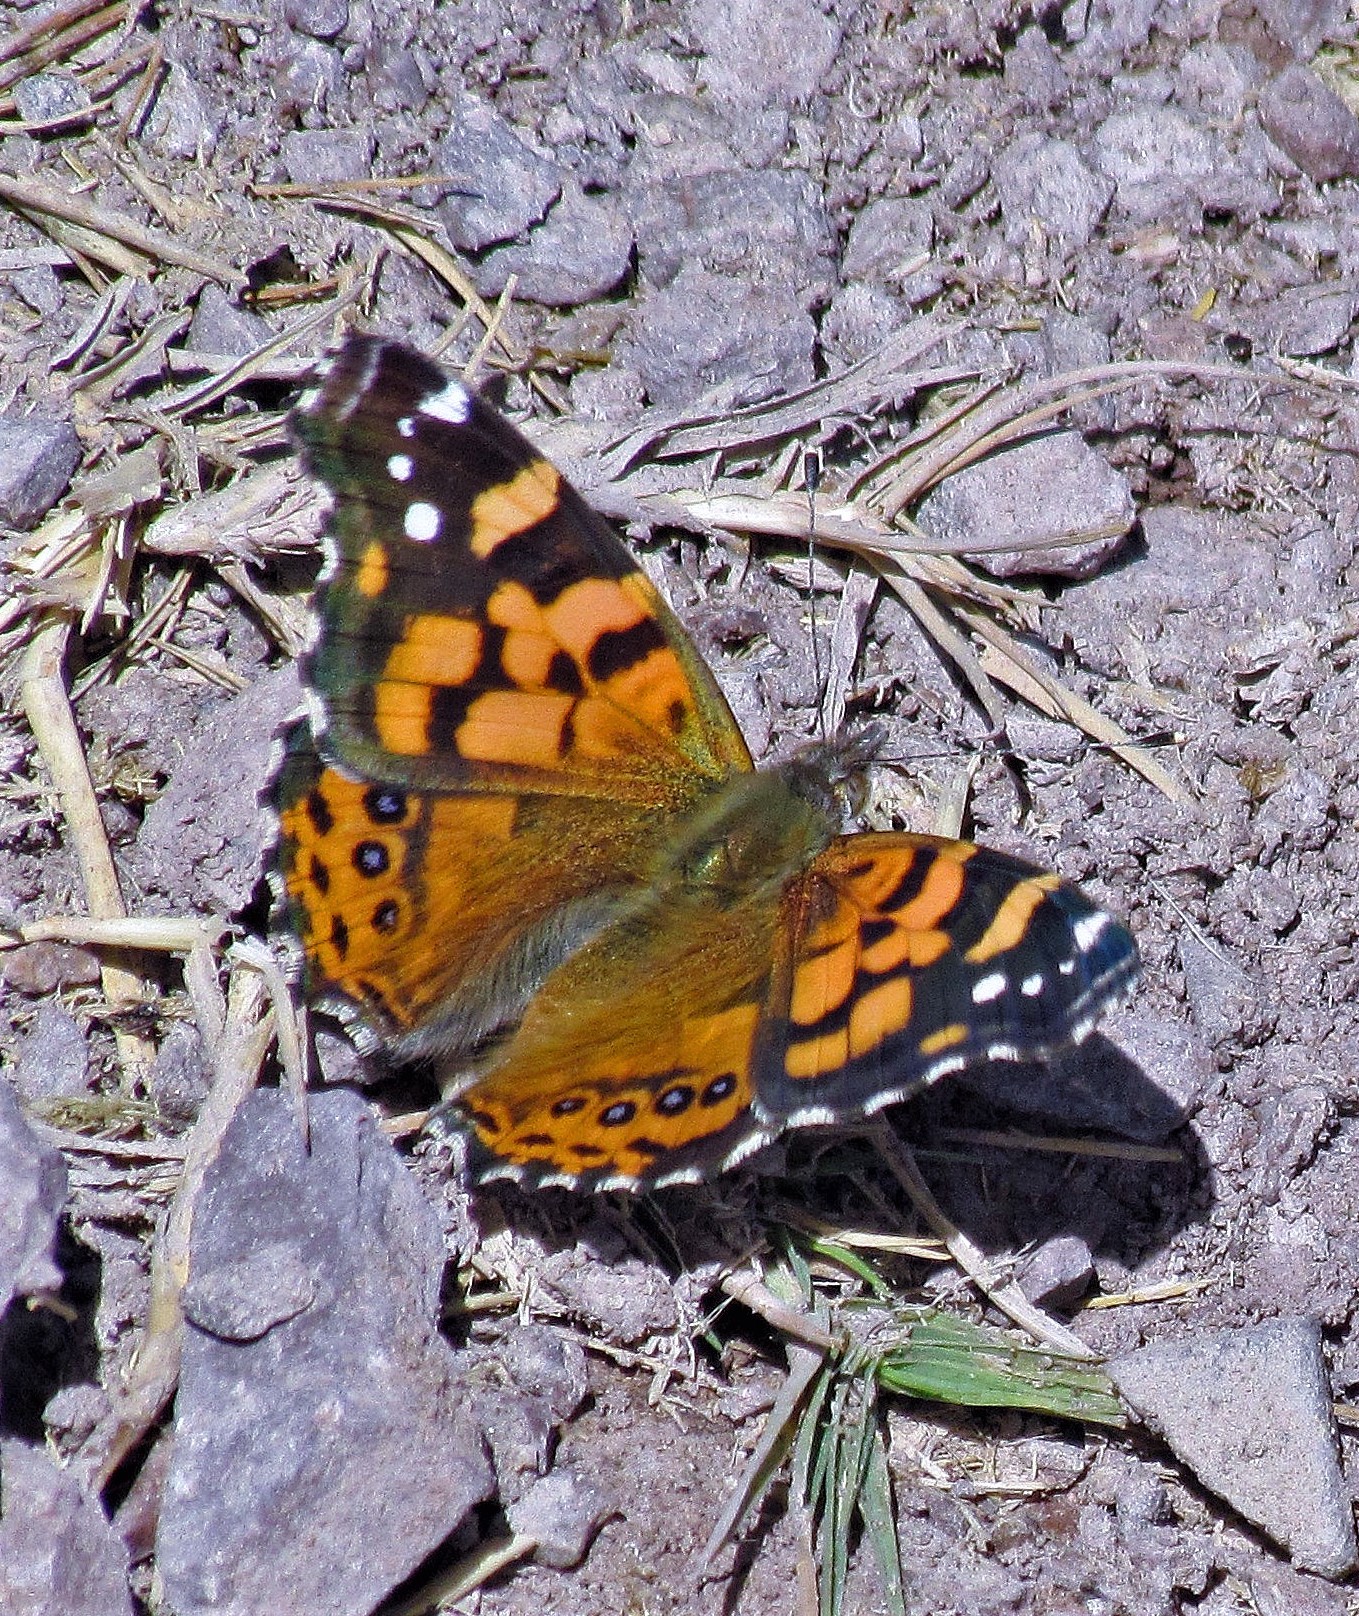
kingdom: Animalia
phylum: Arthropoda
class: Insecta
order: Lepidoptera
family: Nymphalidae
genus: Vanessa
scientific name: Vanessa carye
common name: Subtropical lady
